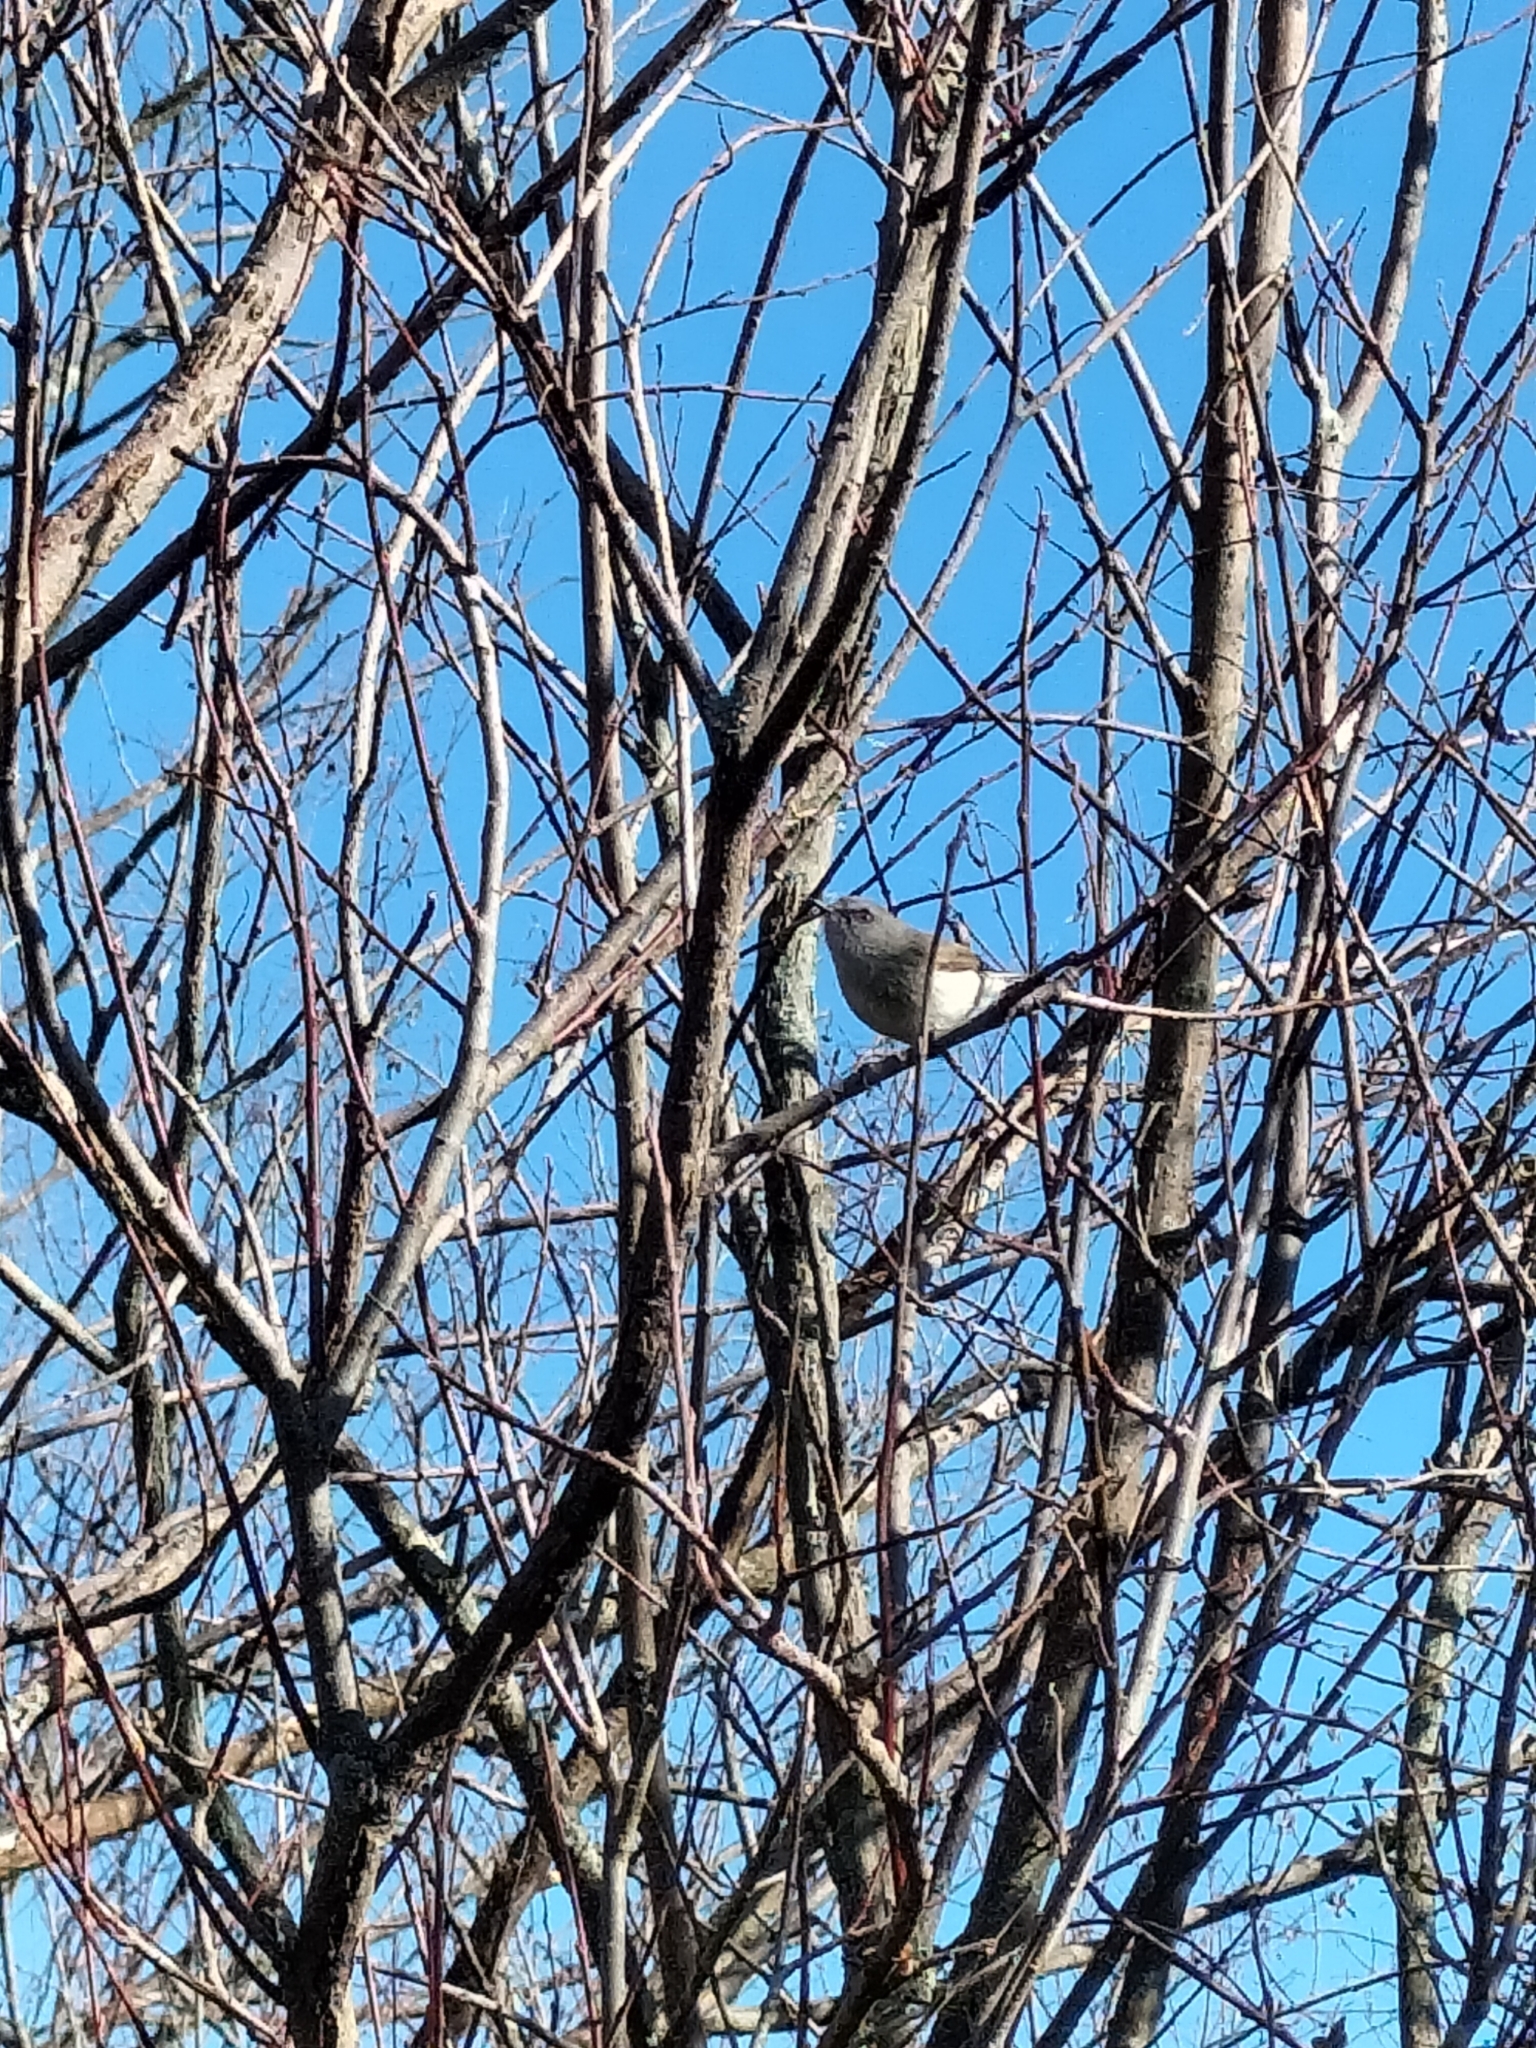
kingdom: Animalia
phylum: Chordata
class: Aves
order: Passeriformes
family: Acanthizidae
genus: Gerygone
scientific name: Gerygone igata
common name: Grey gerygone
